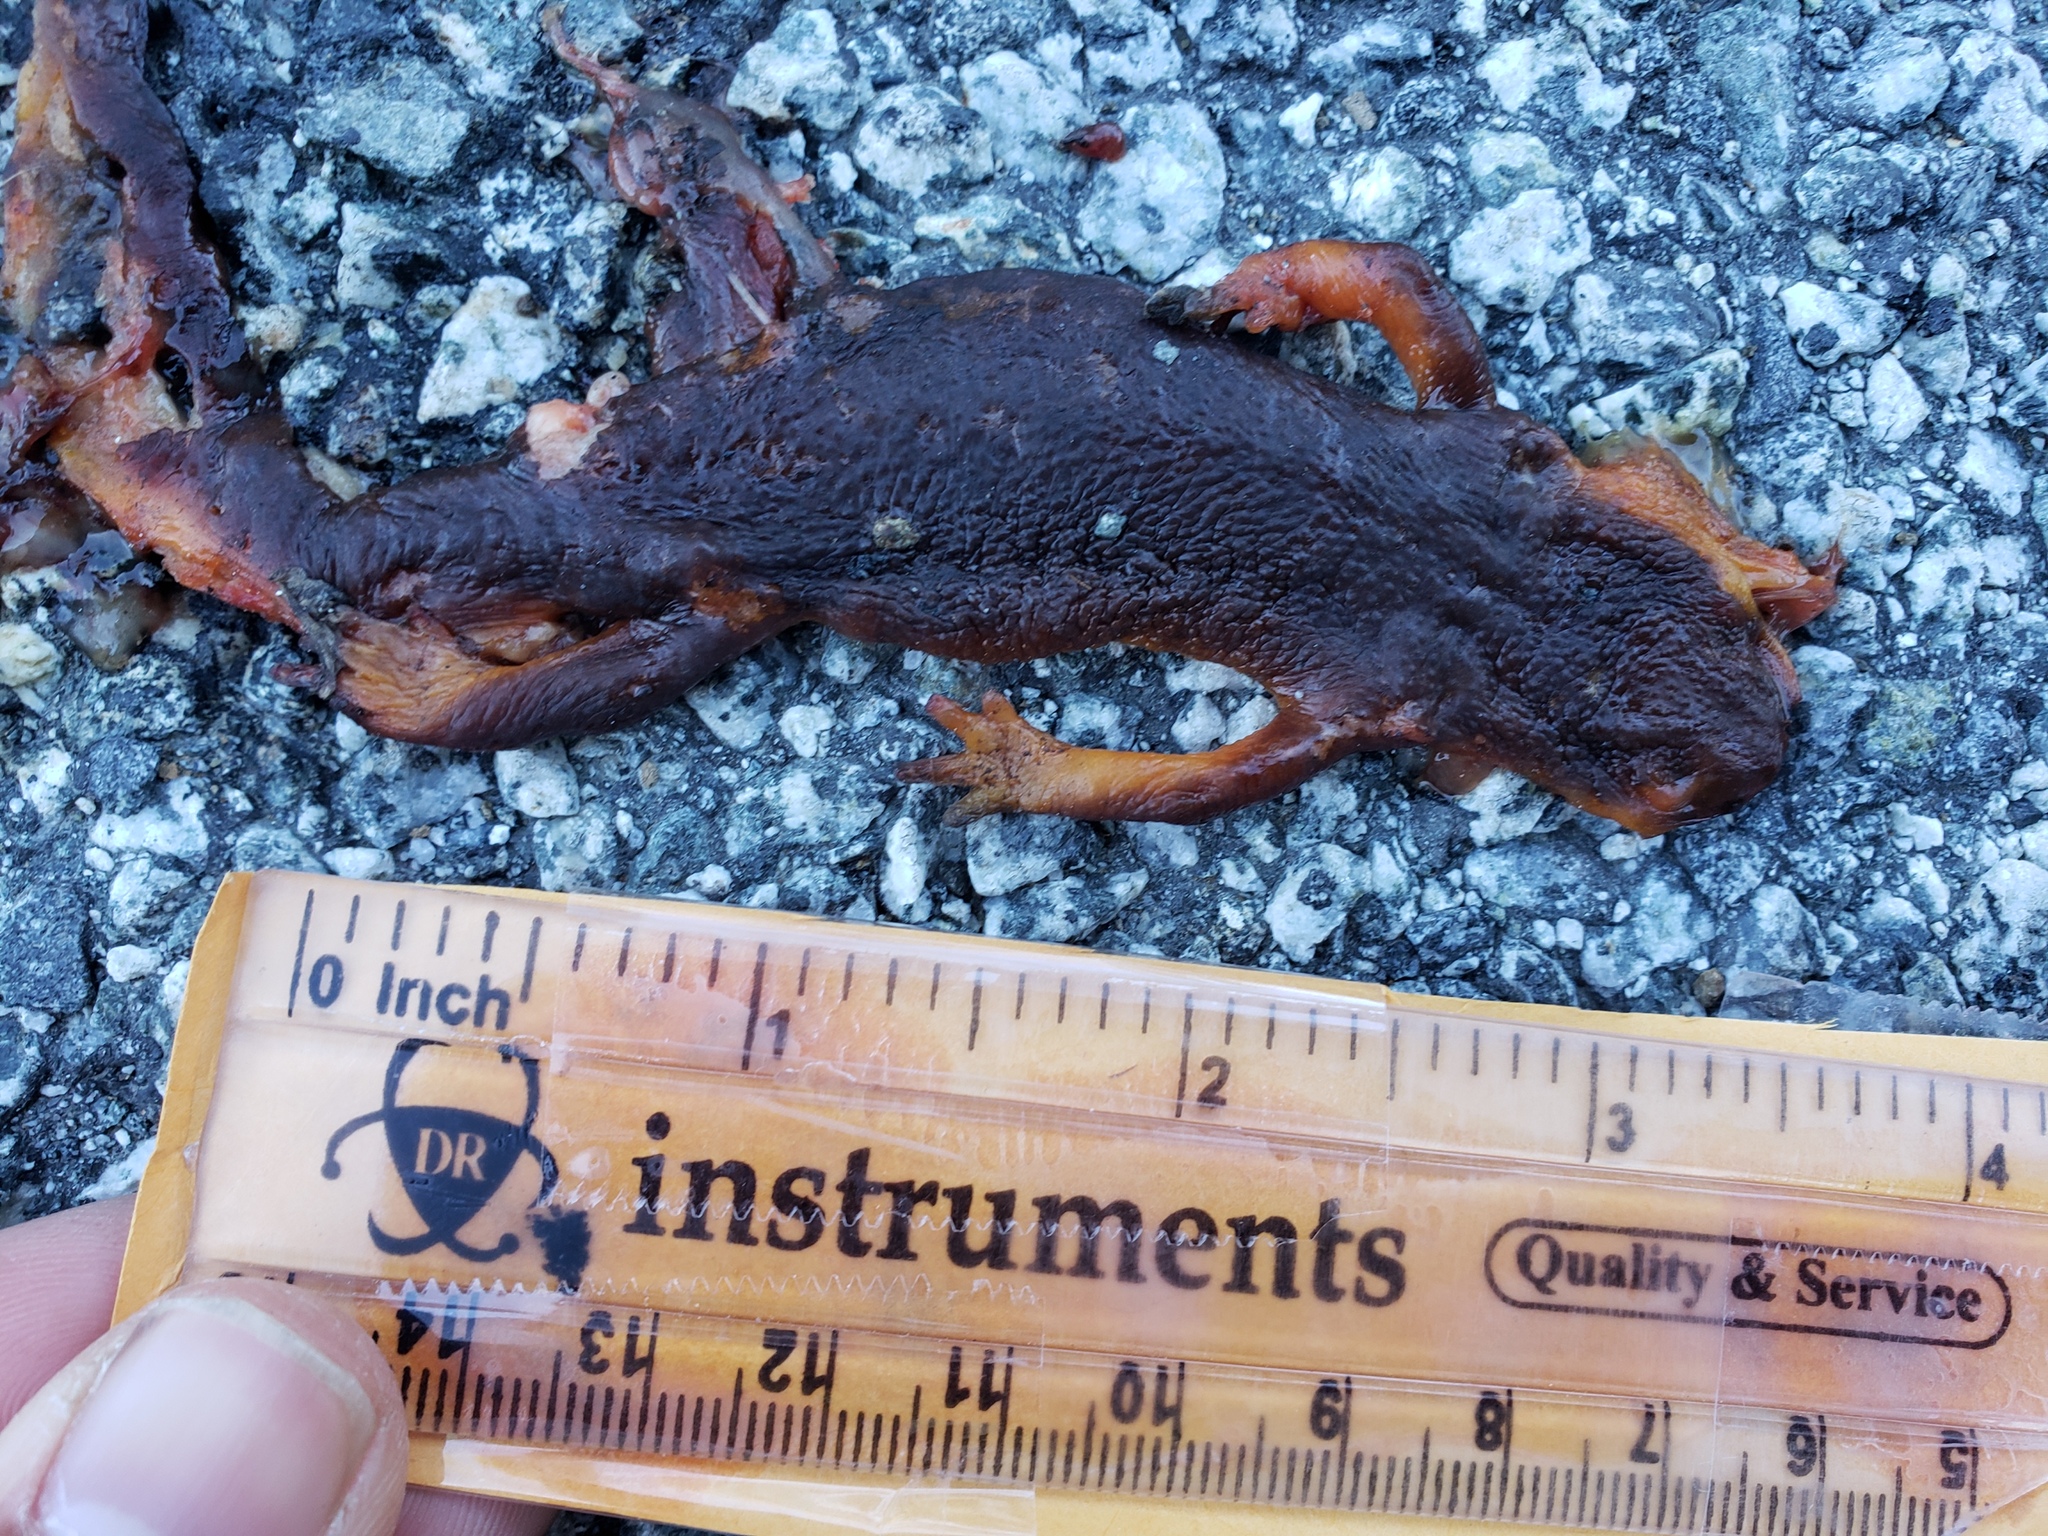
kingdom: Animalia
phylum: Chordata
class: Amphibia
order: Caudata
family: Salamandridae
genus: Taricha
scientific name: Taricha
